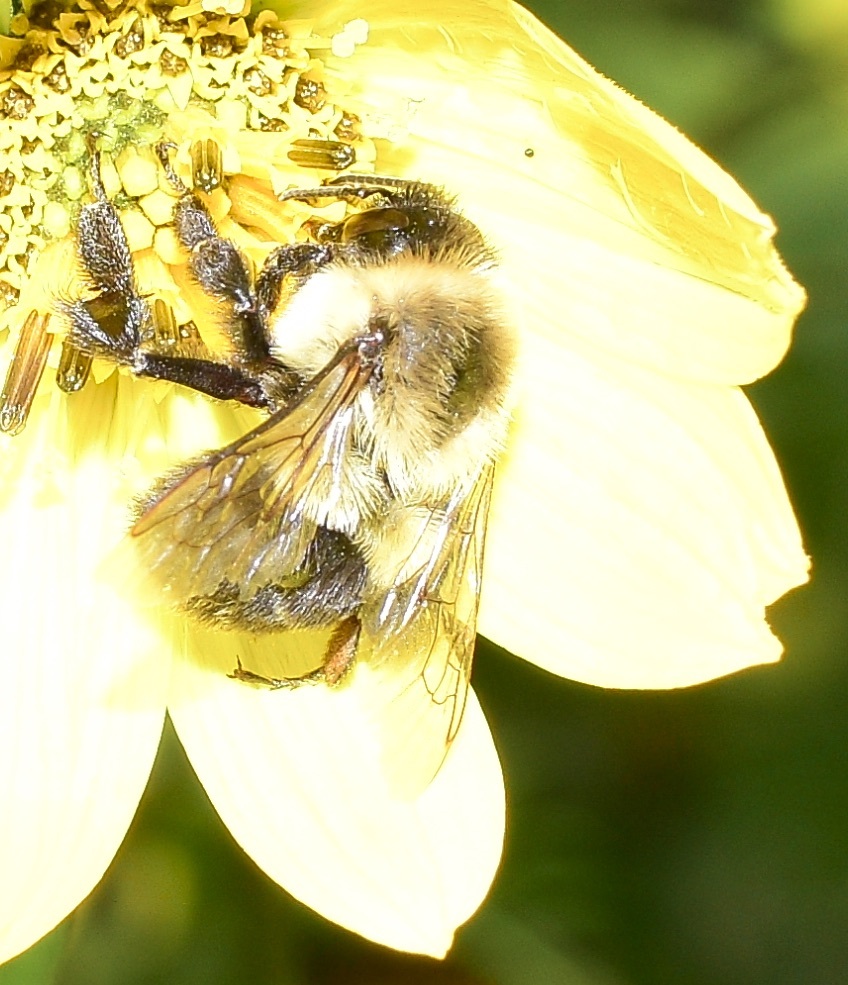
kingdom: Animalia
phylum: Arthropoda
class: Insecta
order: Hymenoptera
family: Apidae
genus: Bombus
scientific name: Bombus impatiens
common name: Common eastern bumble bee
